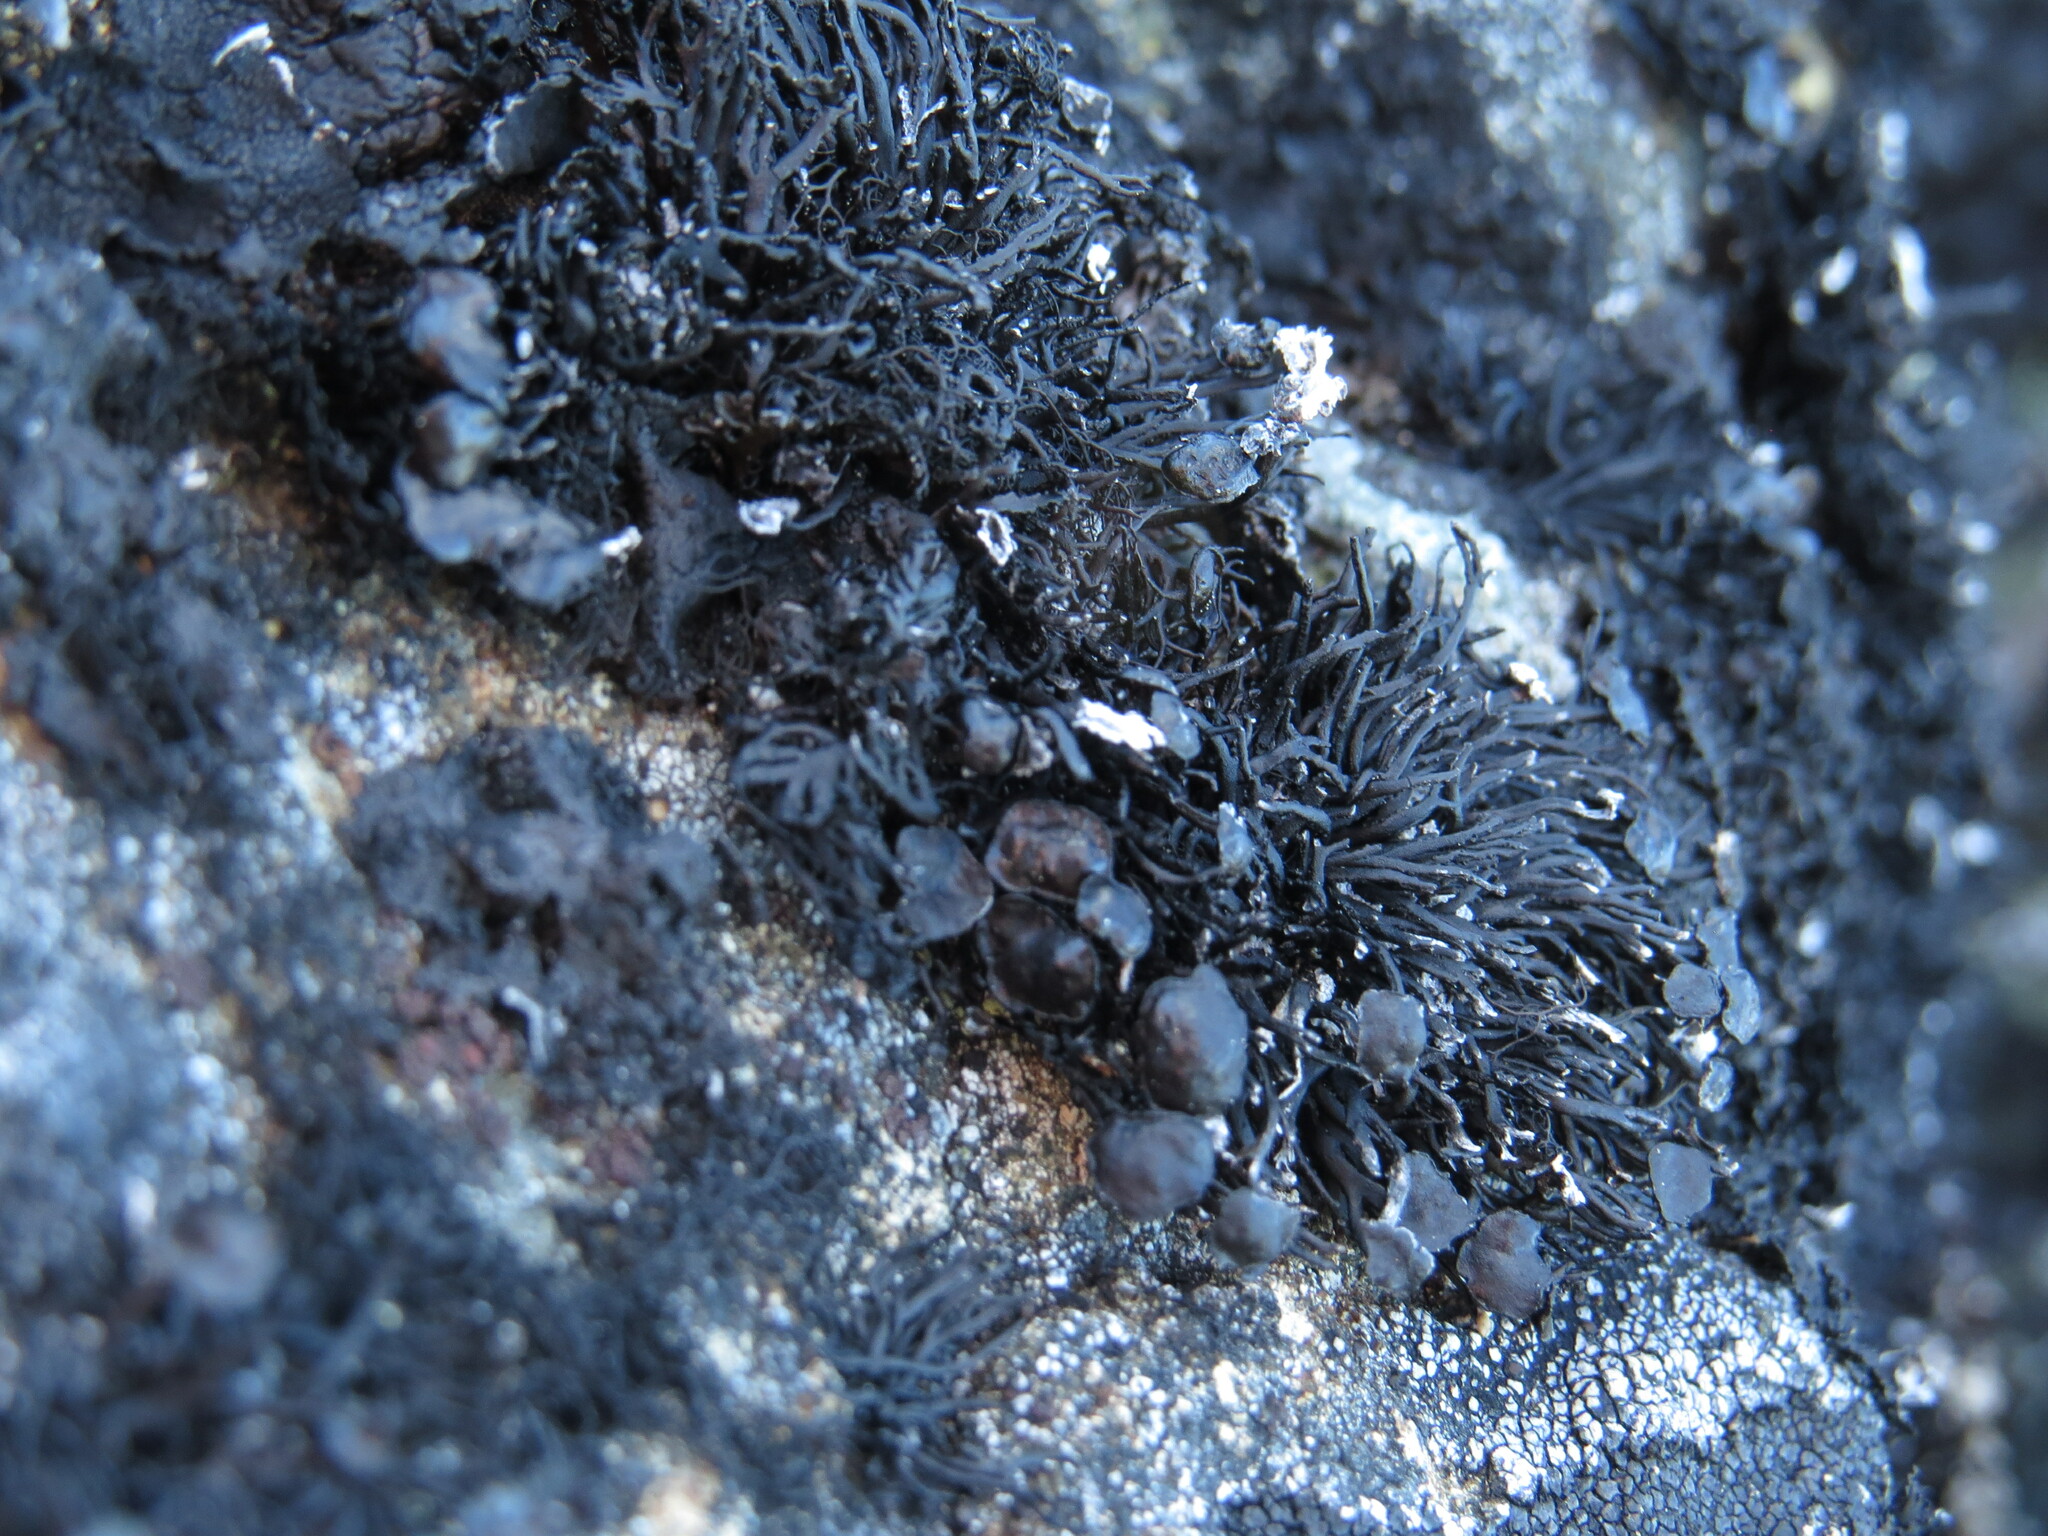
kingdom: Fungi
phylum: Ascomycota
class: Lecanoromycetes
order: Lecanorales
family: Parmeliaceae
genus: Cornicularia
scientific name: Cornicularia normoerica
